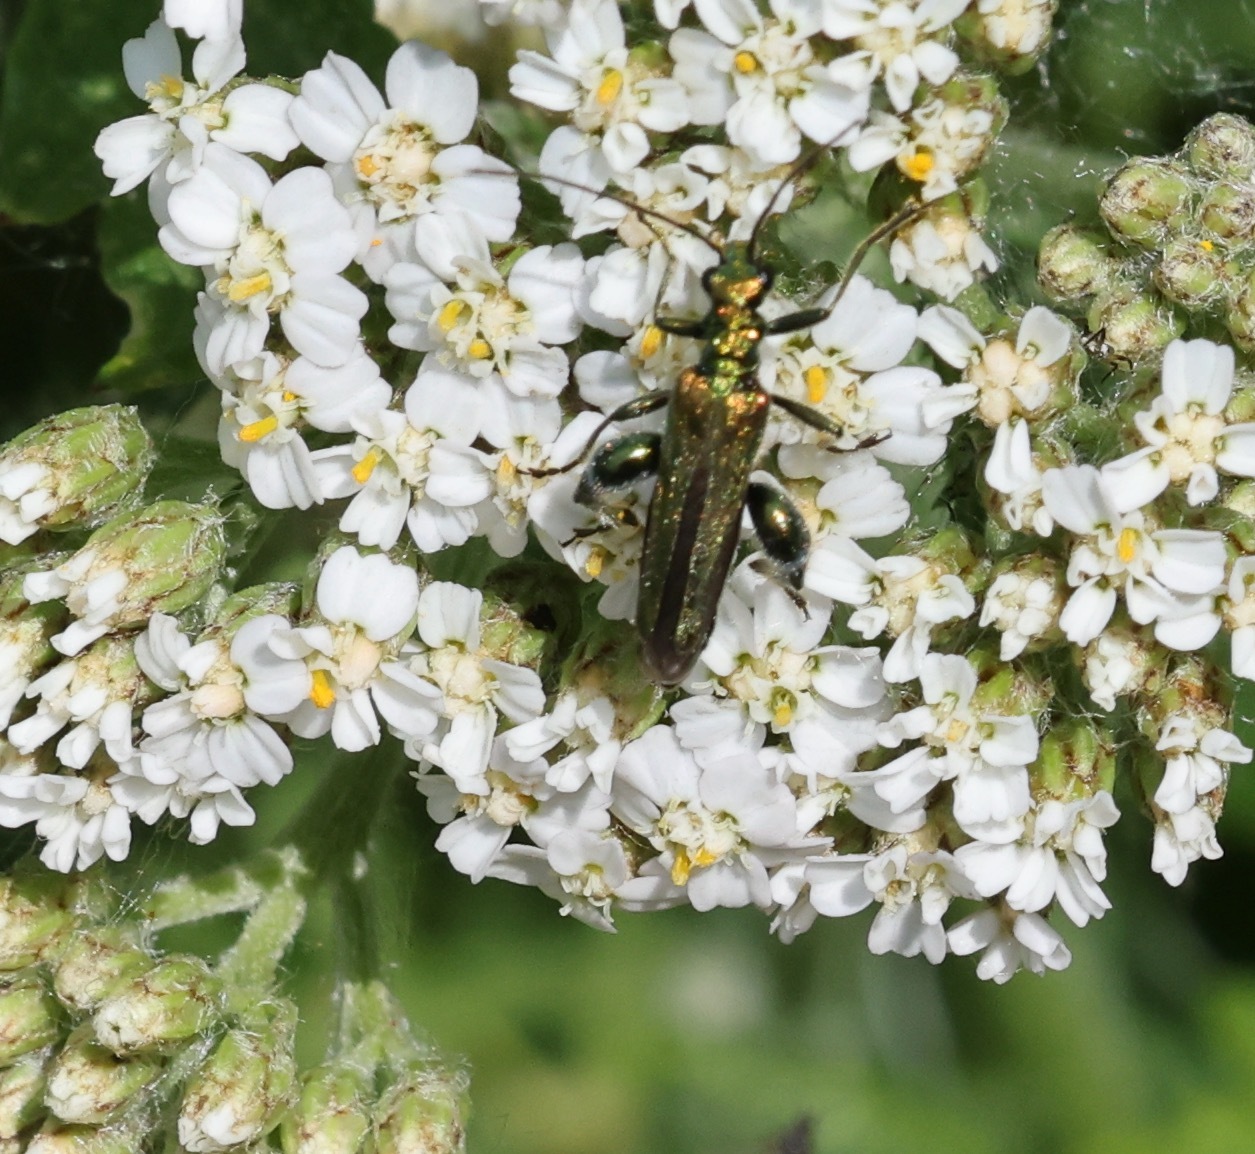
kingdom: Animalia
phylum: Arthropoda
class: Insecta
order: Coleoptera
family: Oedemeridae
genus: Oedemera
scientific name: Oedemera nobilis
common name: Swollen-thighed beetle
